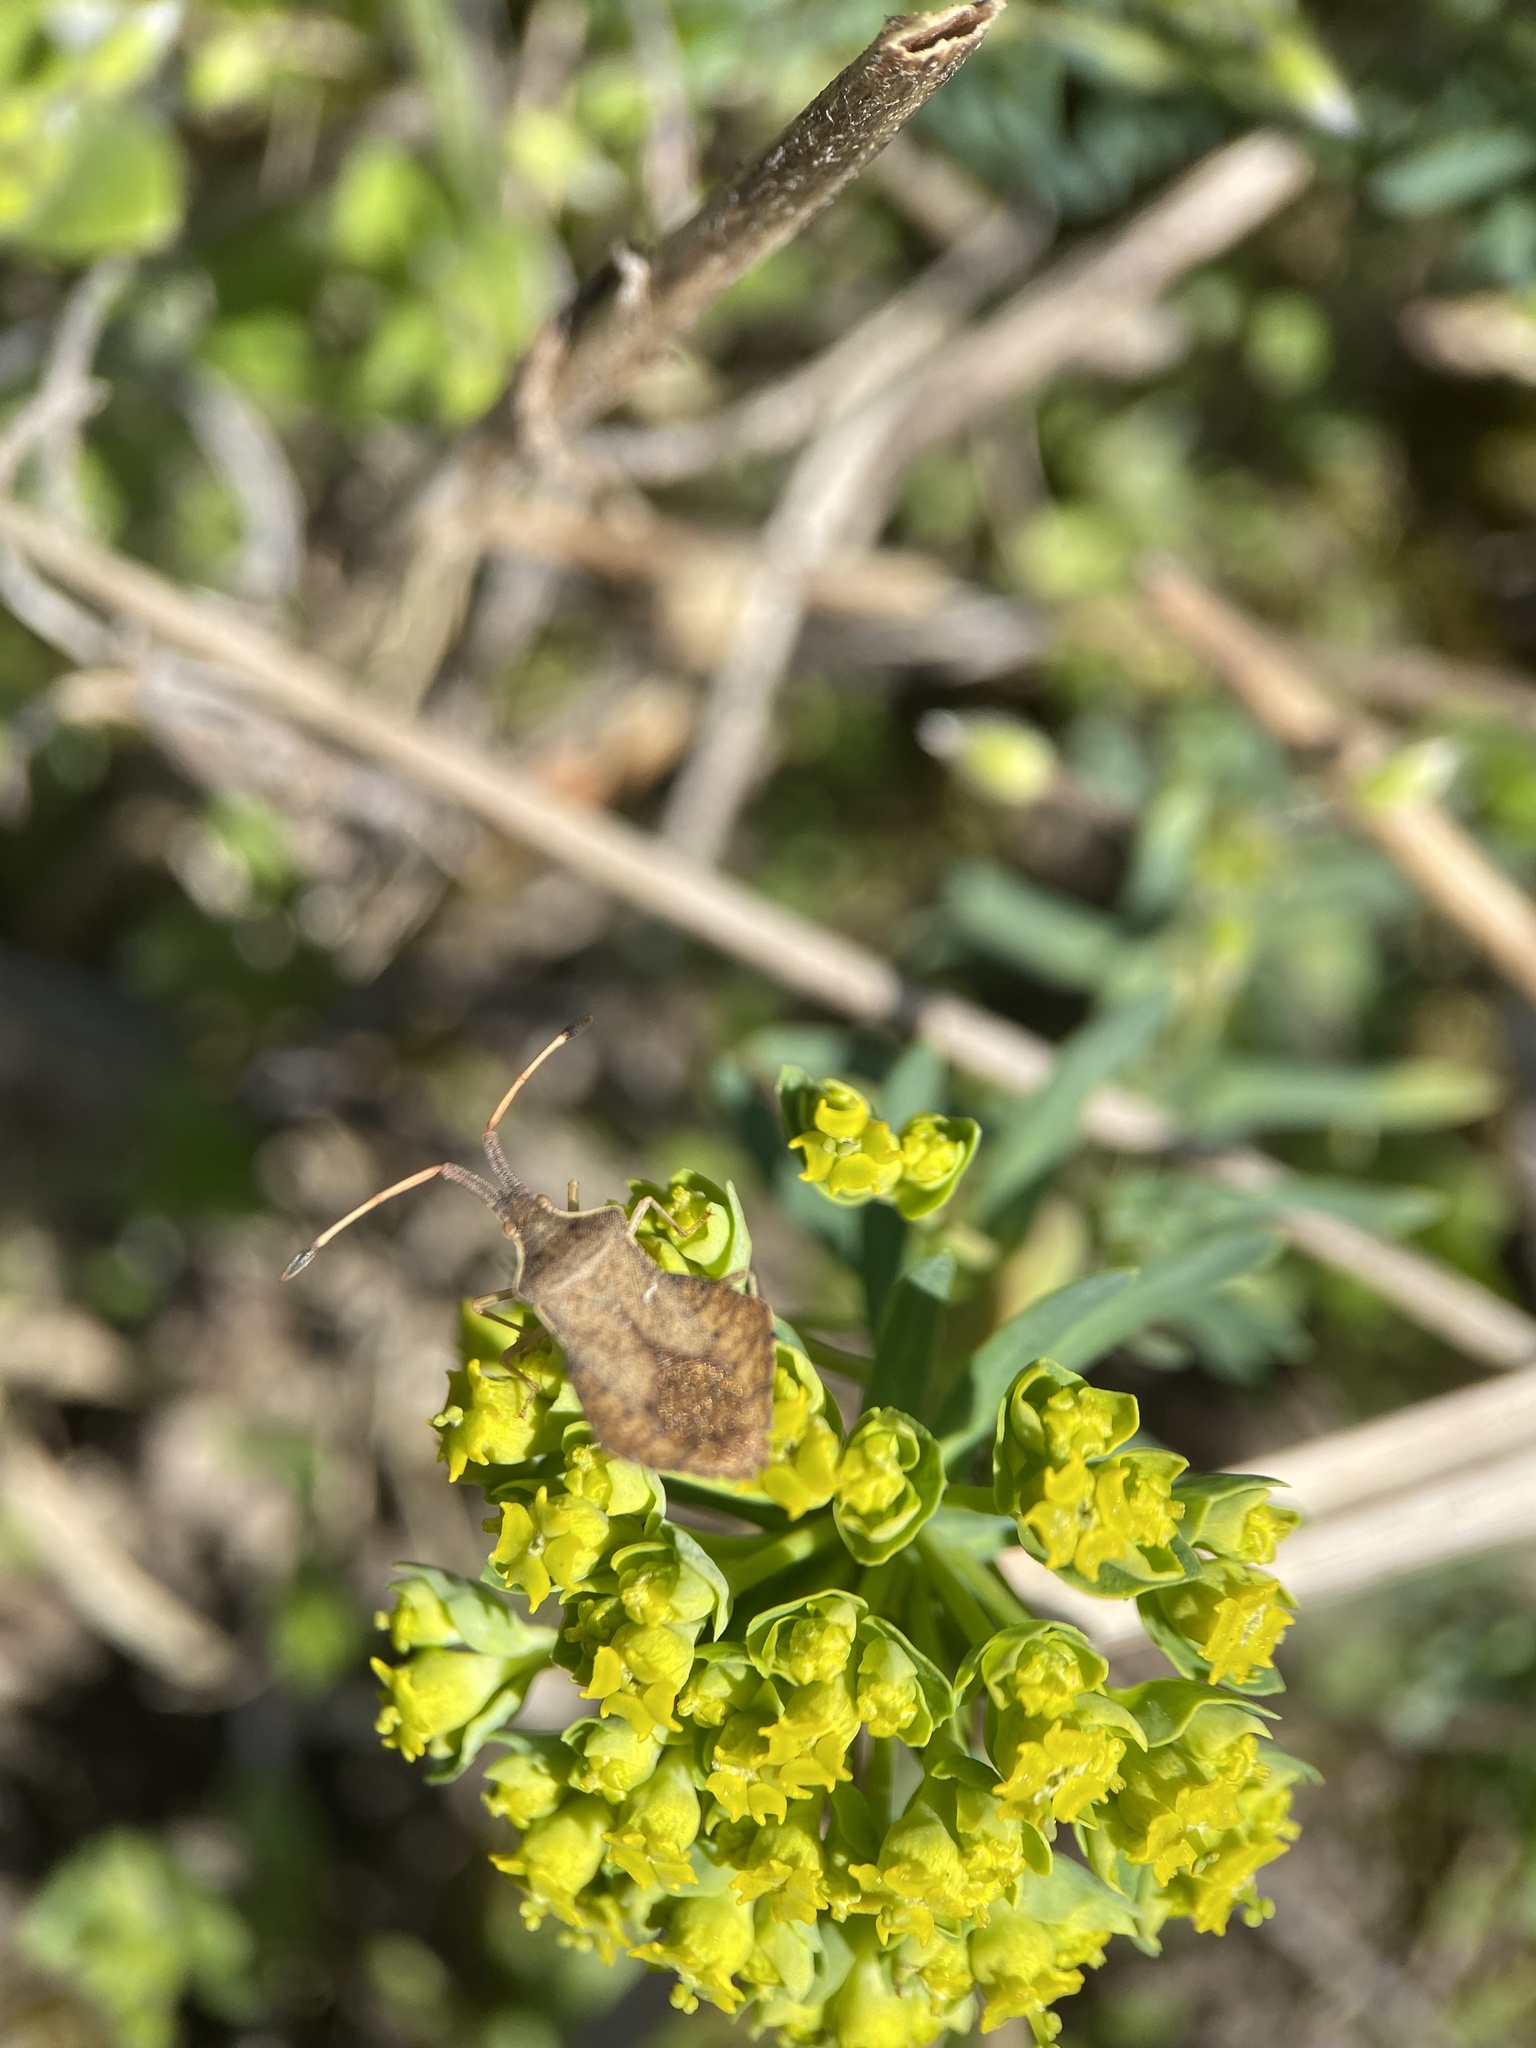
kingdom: Animalia
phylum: Arthropoda
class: Insecta
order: Hemiptera
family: Coreidae
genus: Syromastus
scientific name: Syromastus rhombeus
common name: Rhombic leatherbug
